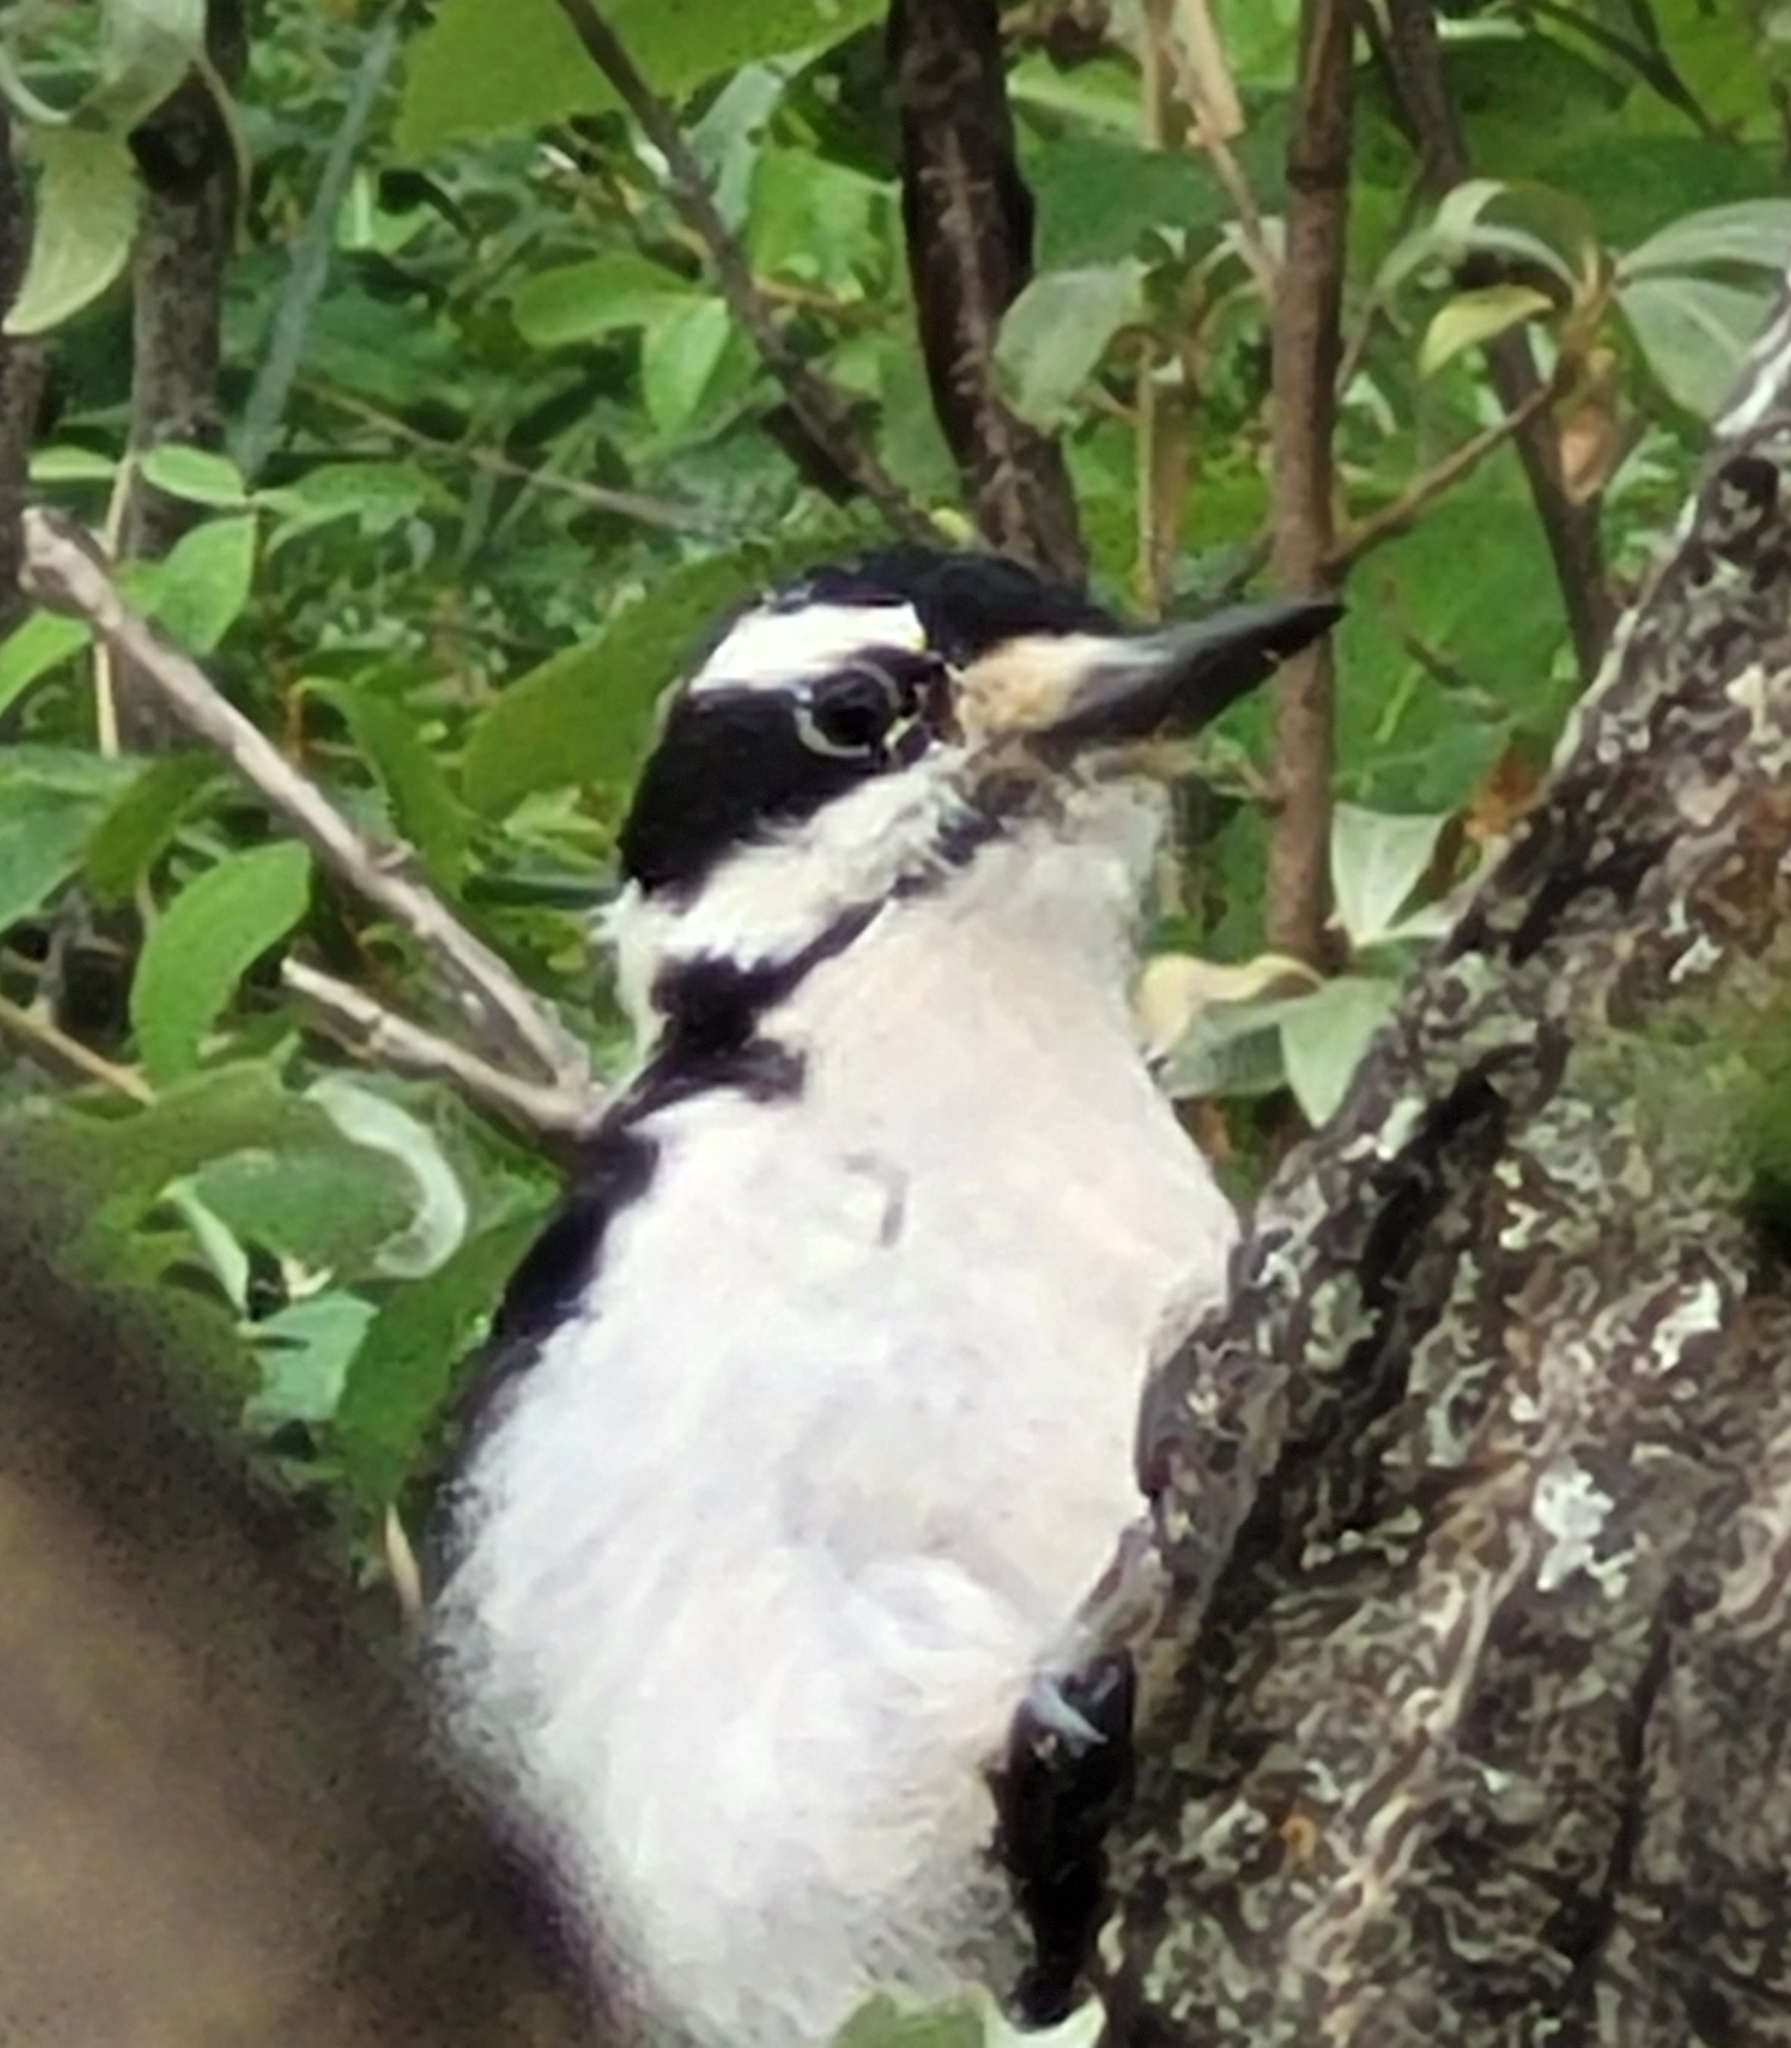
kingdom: Animalia
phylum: Chordata
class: Aves
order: Piciformes
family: Picidae
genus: Leuconotopicus
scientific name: Leuconotopicus villosus
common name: Hairy woodpecker
